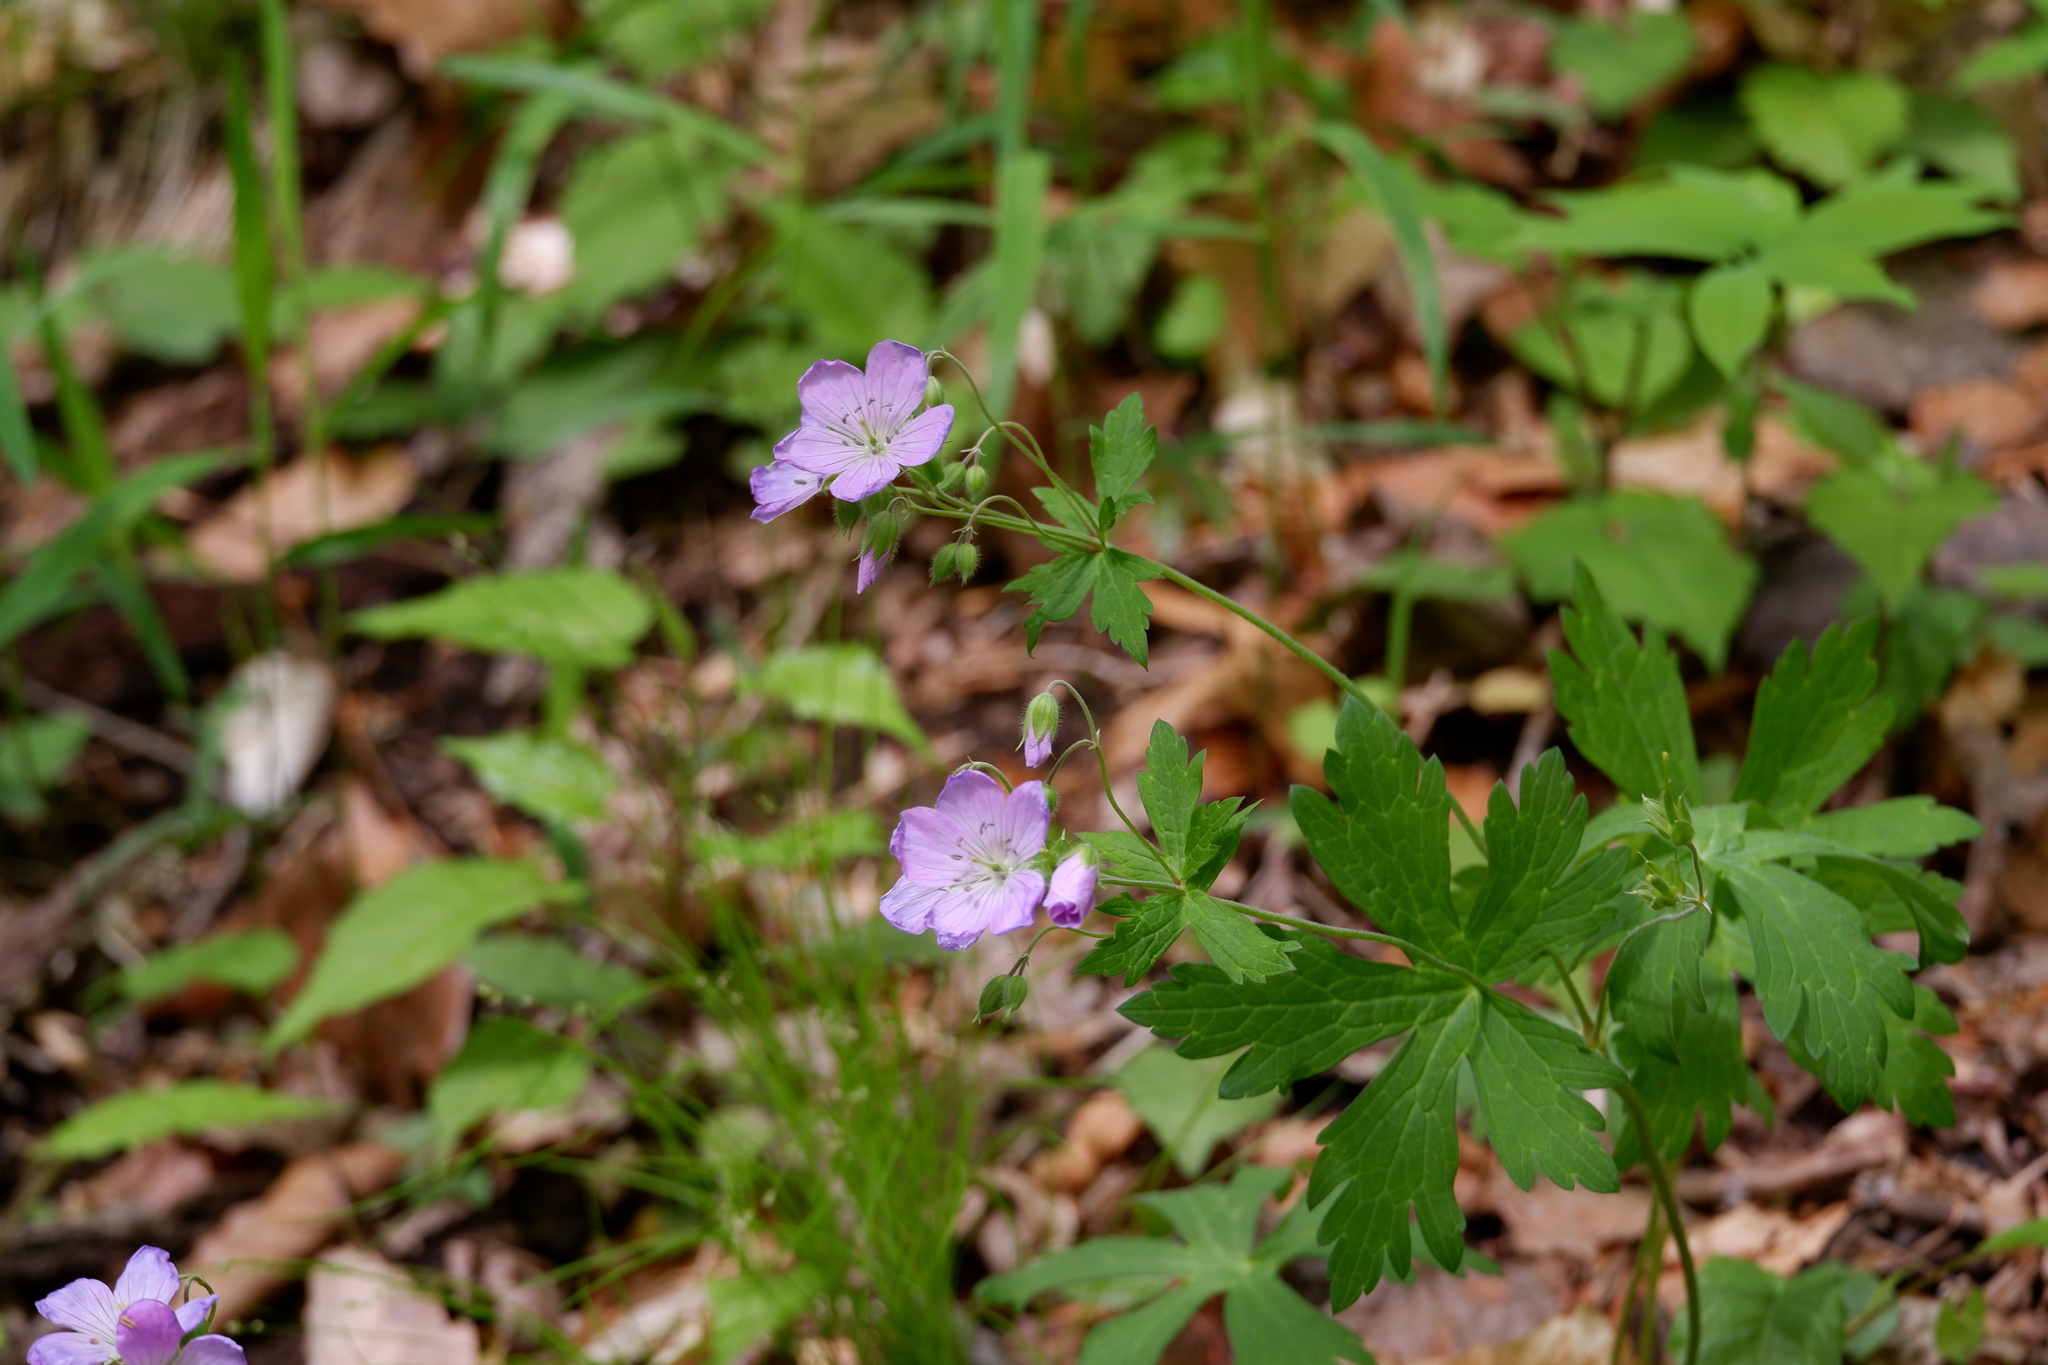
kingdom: Plantae
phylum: Tracheophyta
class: Magnoliopsida
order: Geraniales
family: Geraniaceae
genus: Geranium
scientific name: Geranium maculatum
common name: Spotted geranium
